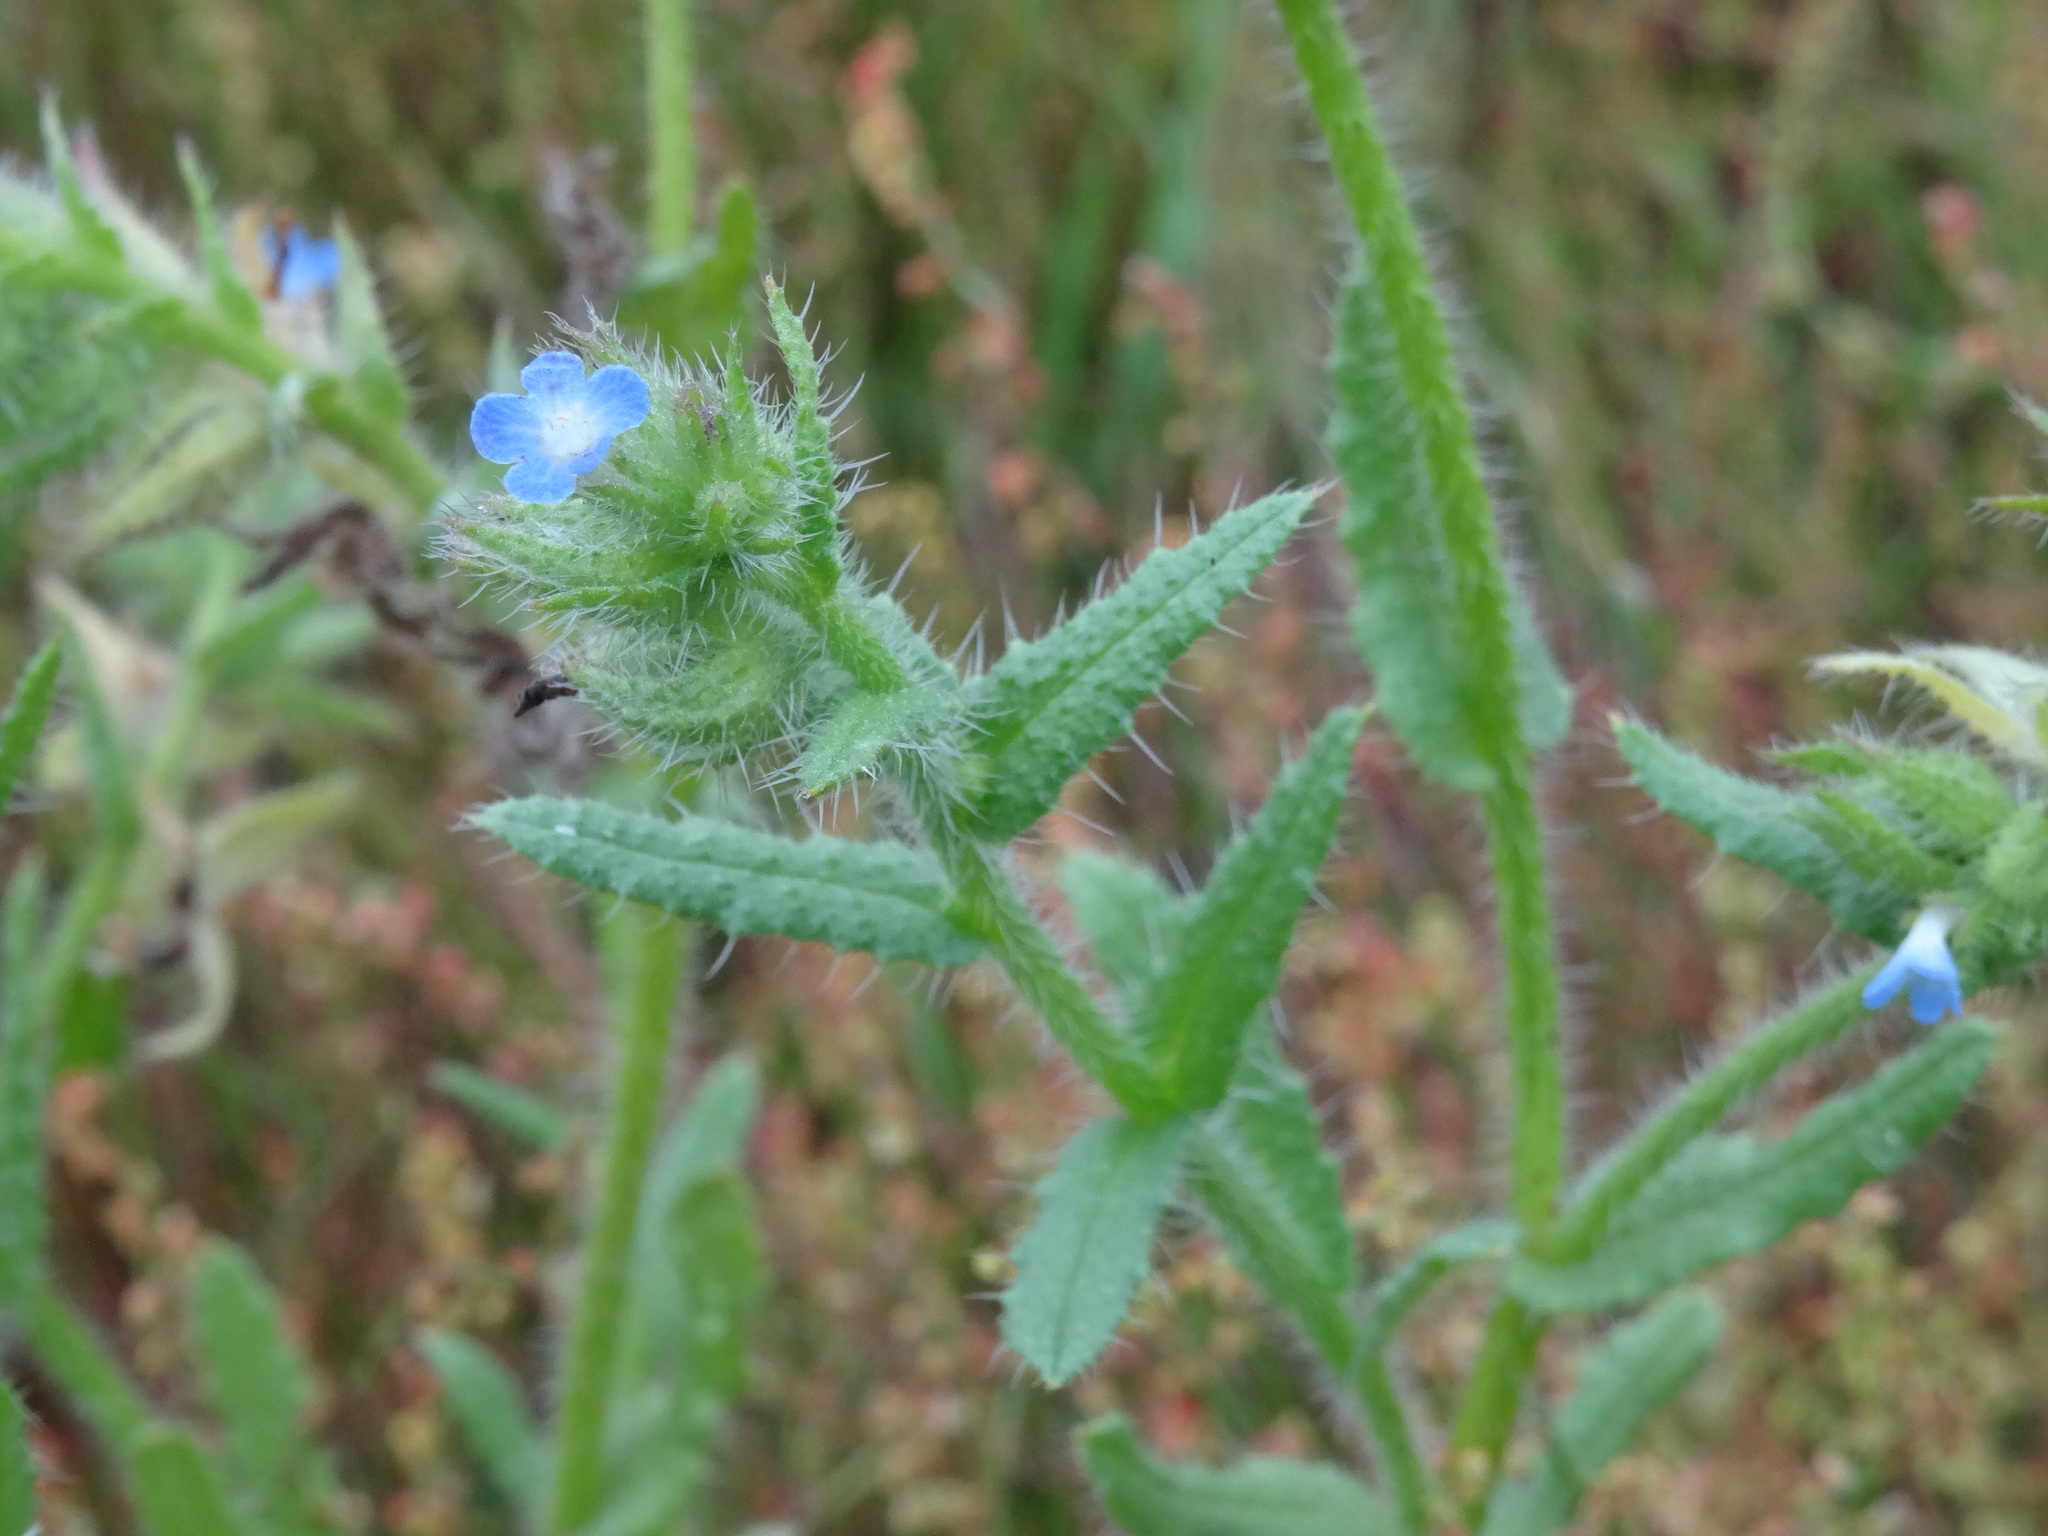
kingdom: Plantae
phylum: Tracheophyta
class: Magnoliopsida
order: Boraginales
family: Boraginaceae
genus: Lycopsis
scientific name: Lycopsis arvensis
